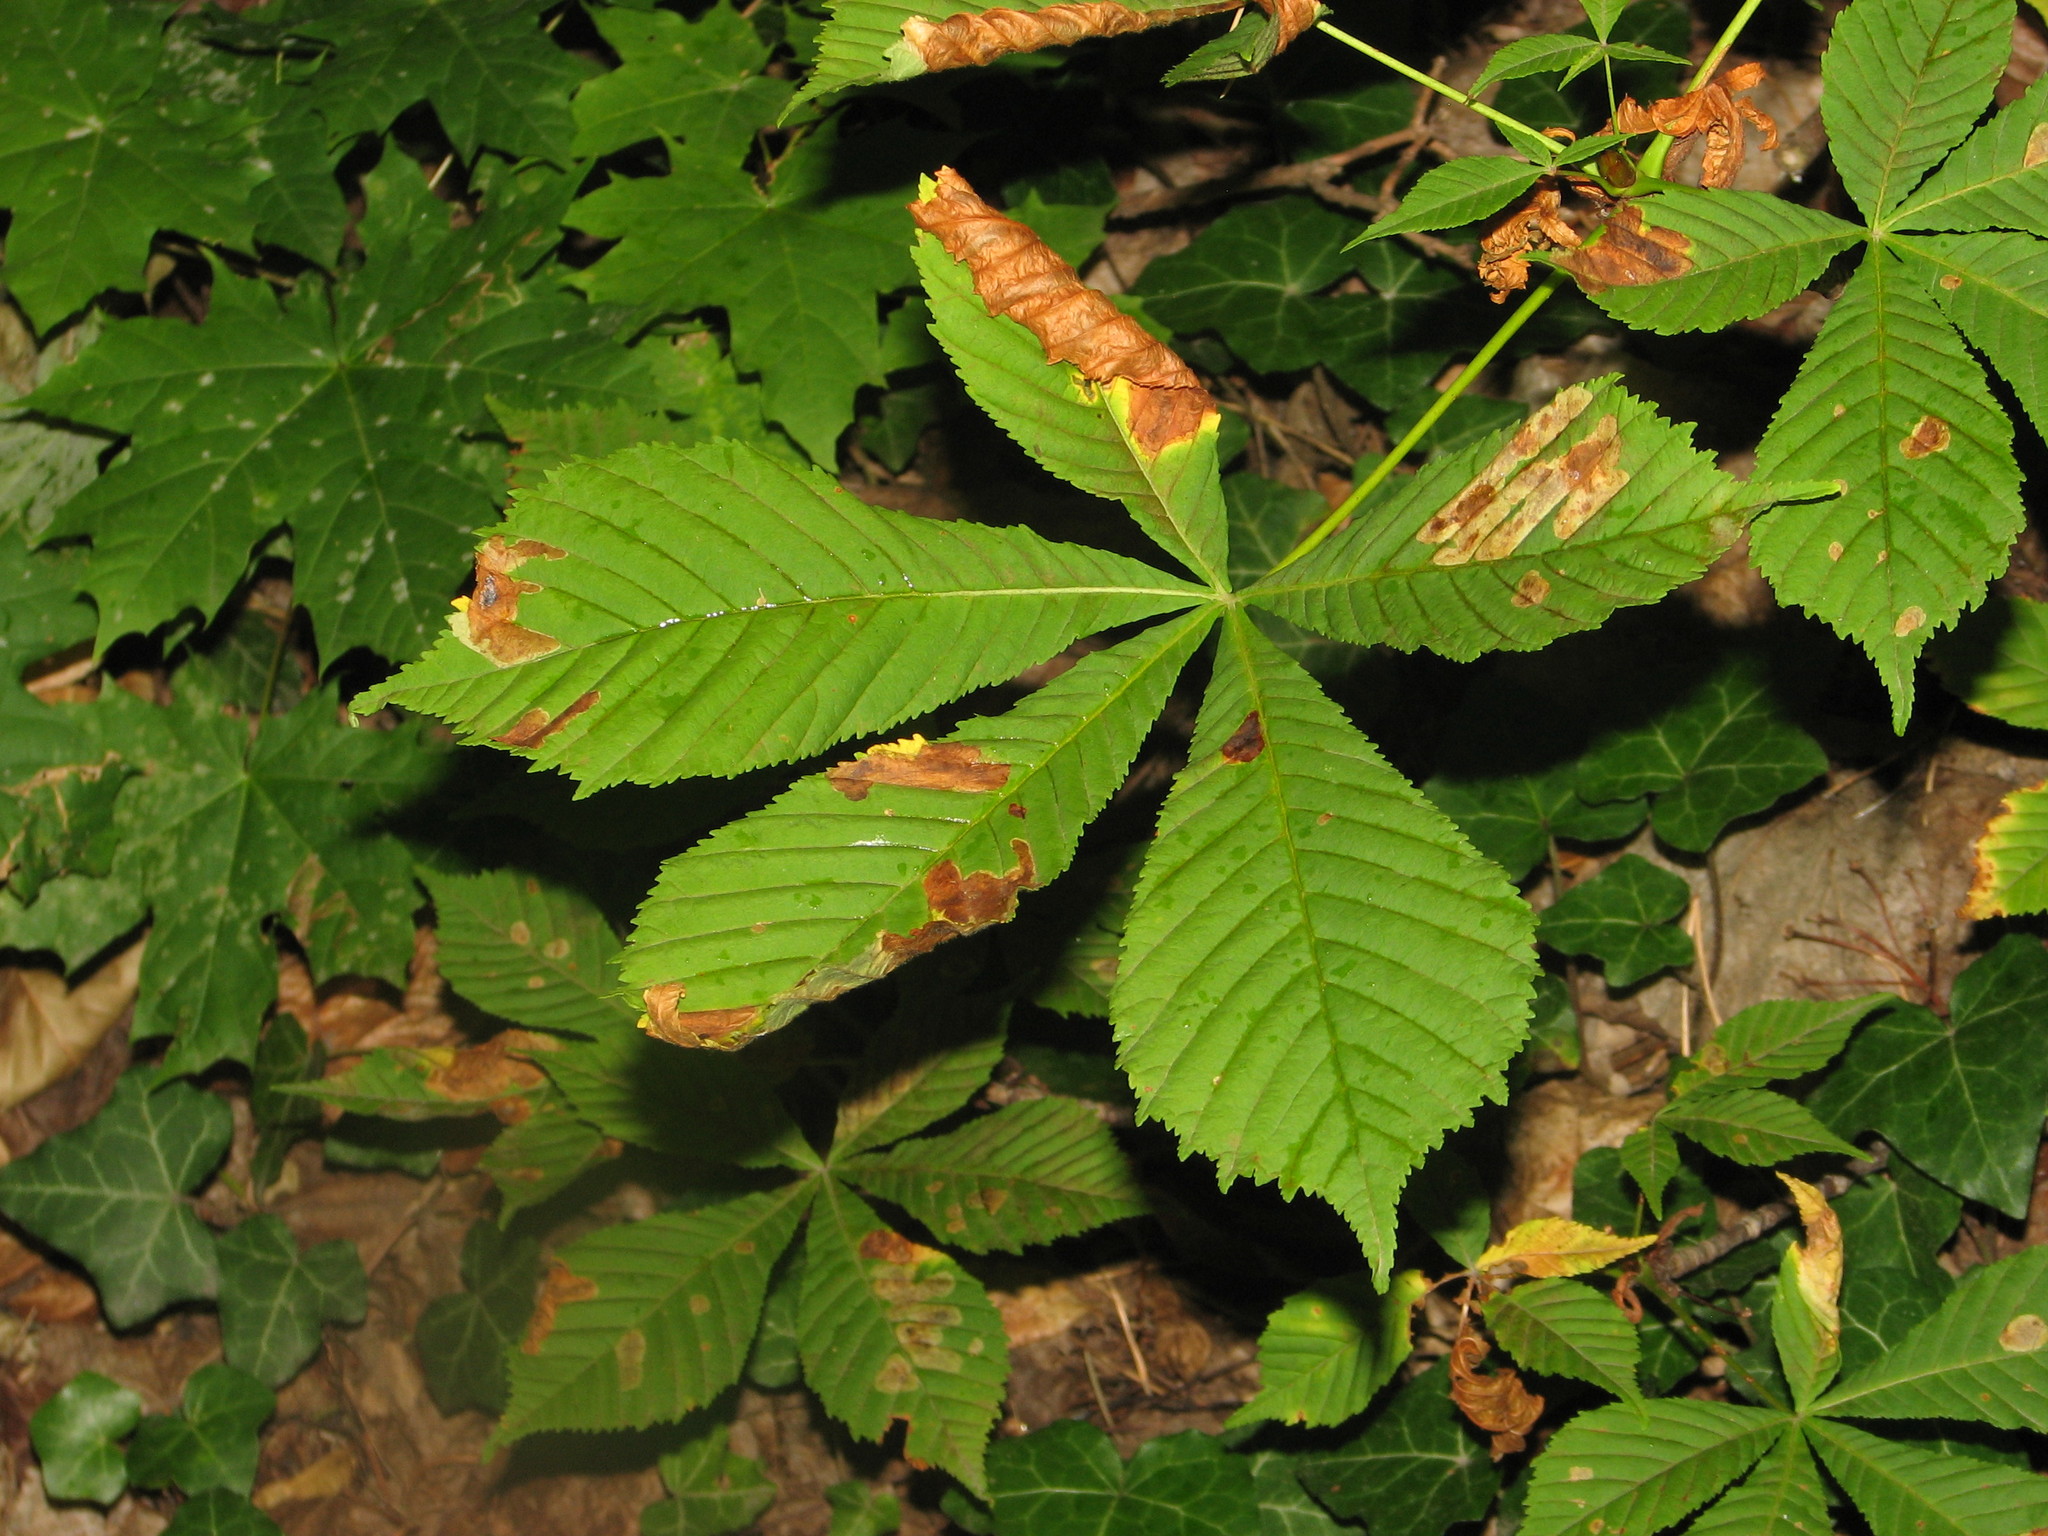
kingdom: Plantae
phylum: Tracheophyta
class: Magnoliopsida
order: Sapindales
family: Sapindaceae
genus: Aesculus
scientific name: Aesculus hippocastanum
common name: Horse-chestnut
